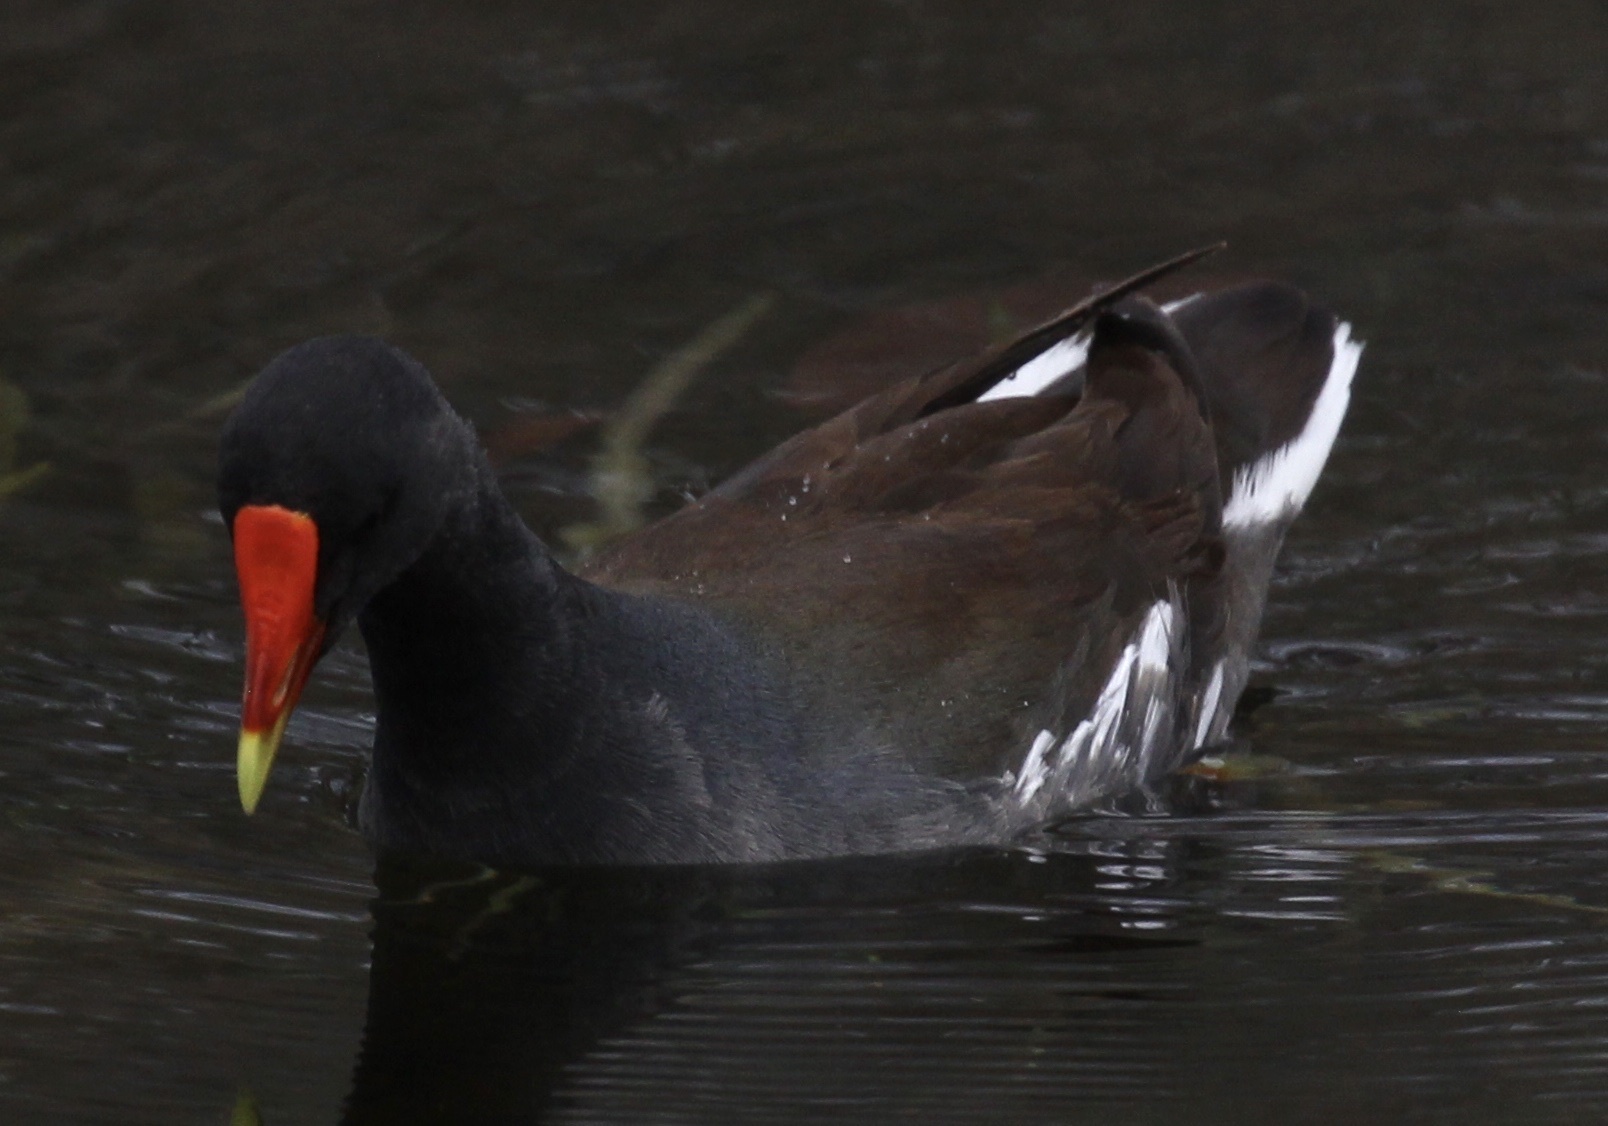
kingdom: Animalia
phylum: Chordata
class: Aves
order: Gruiformes
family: Rallidae
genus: Gallinula
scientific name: Gallinula chloropus
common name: Common moorhen
